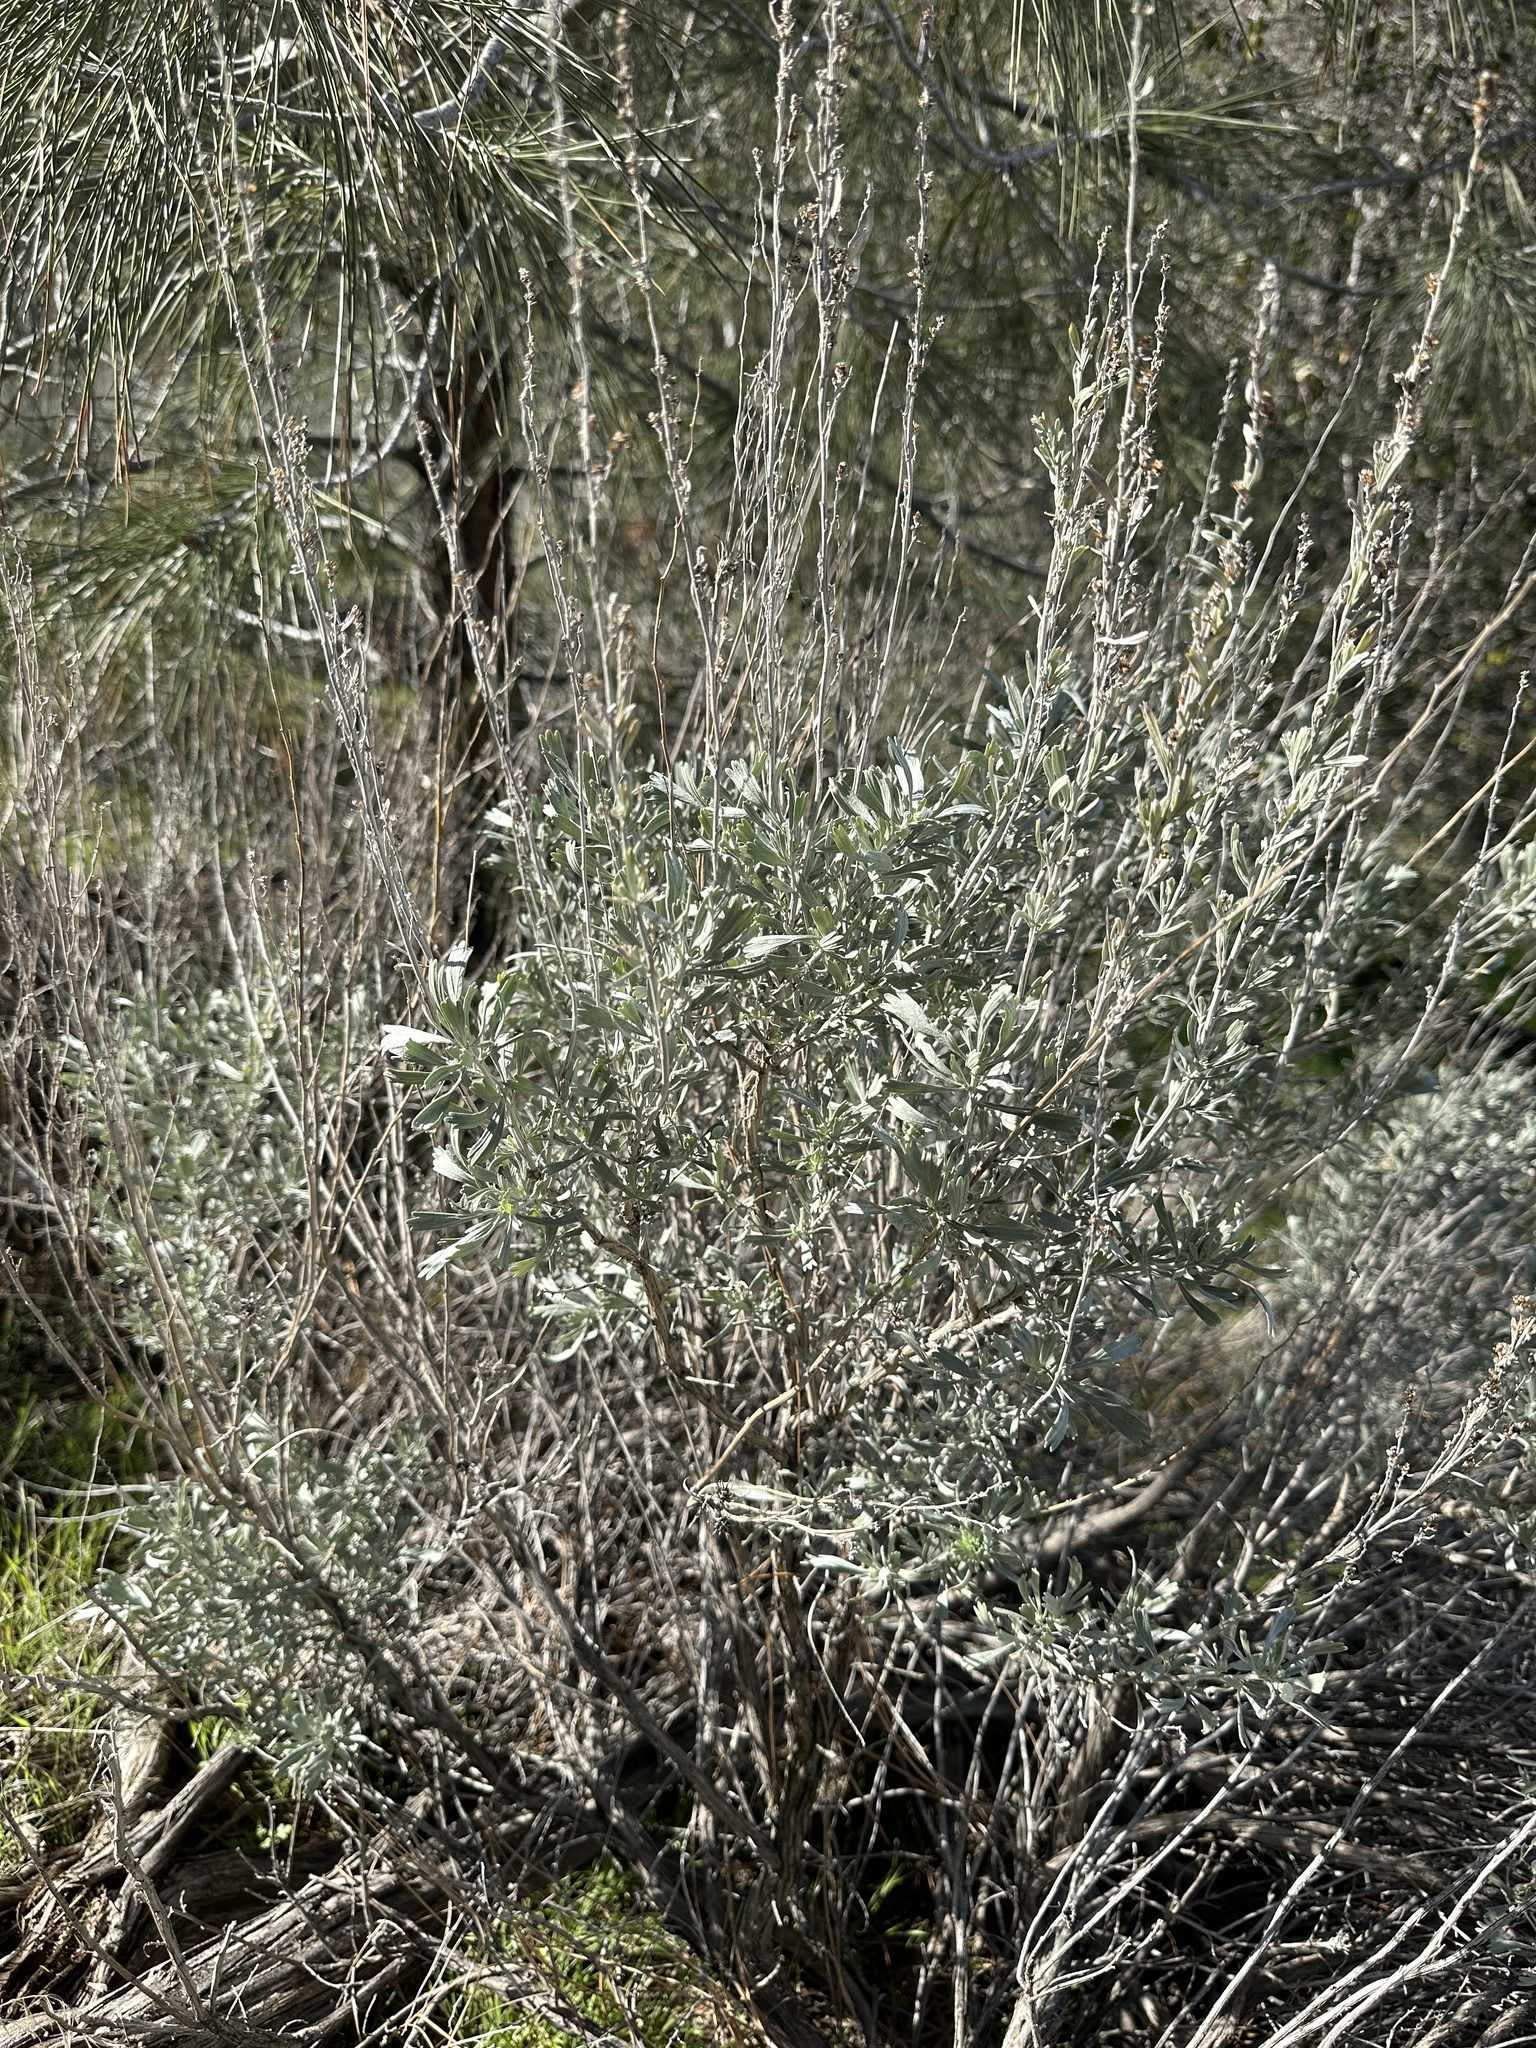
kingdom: Plantae
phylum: Tracheophyta
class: Magnoliopsida
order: Asterales
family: Asteraceae
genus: Artemisia
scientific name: Artemisia tridentata
